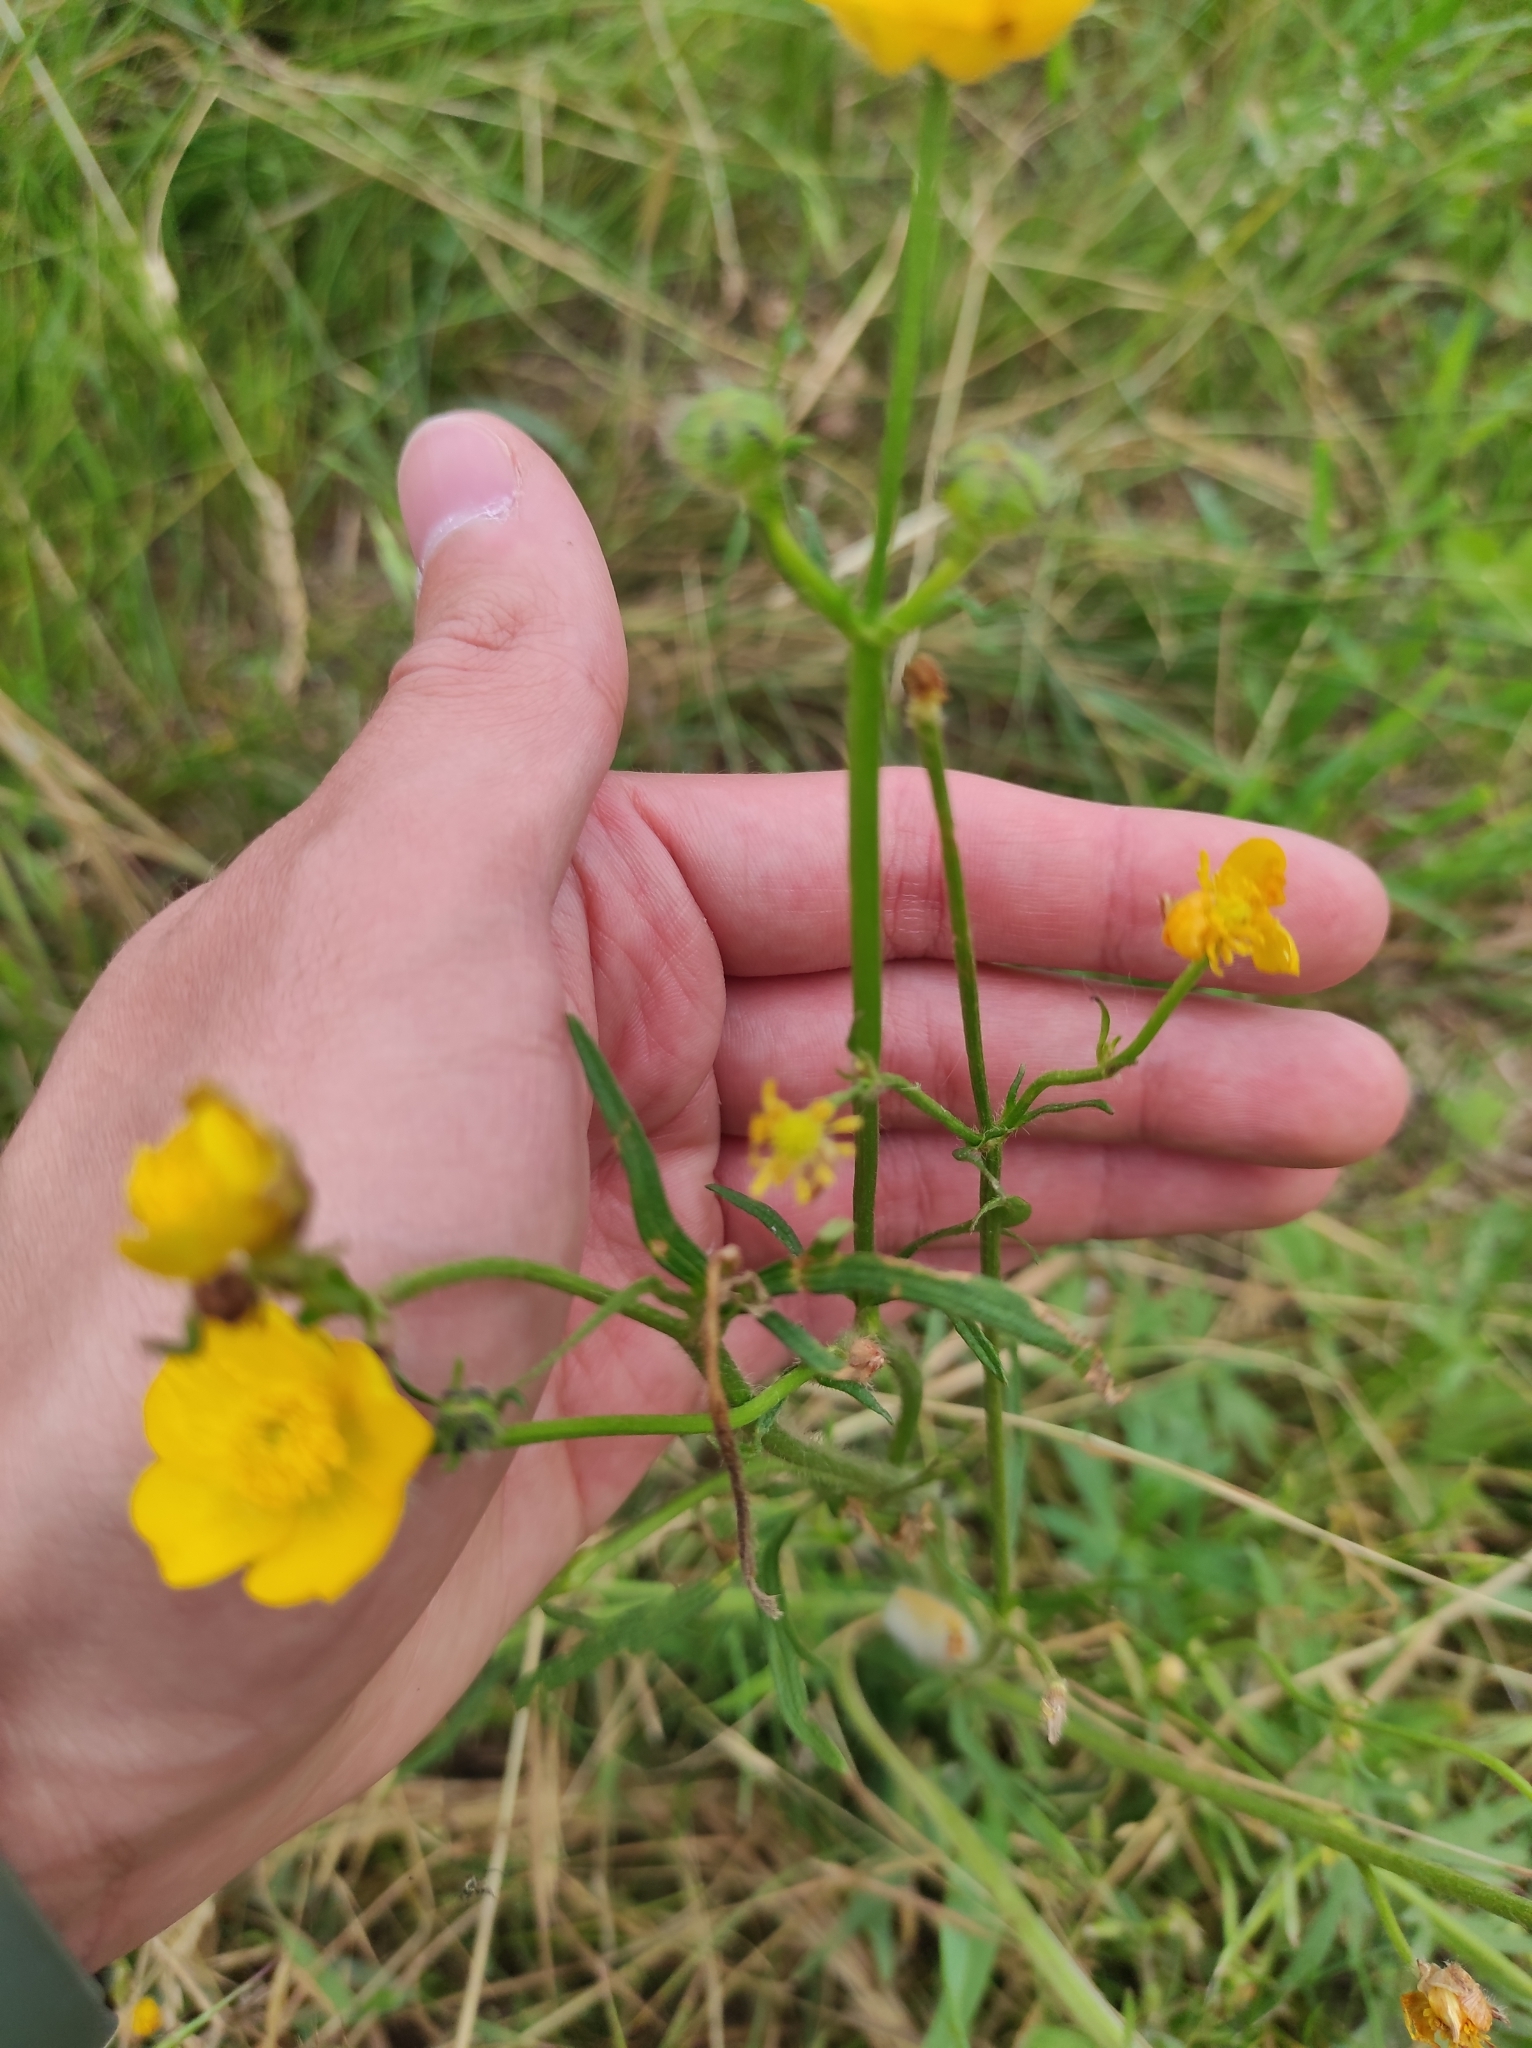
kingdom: Plantae
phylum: Tracheophyta
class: Magnoliopsida
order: Ranunculales
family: Ranunculaceae
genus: Ranunculus
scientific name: Ranunculus polyanthemos
